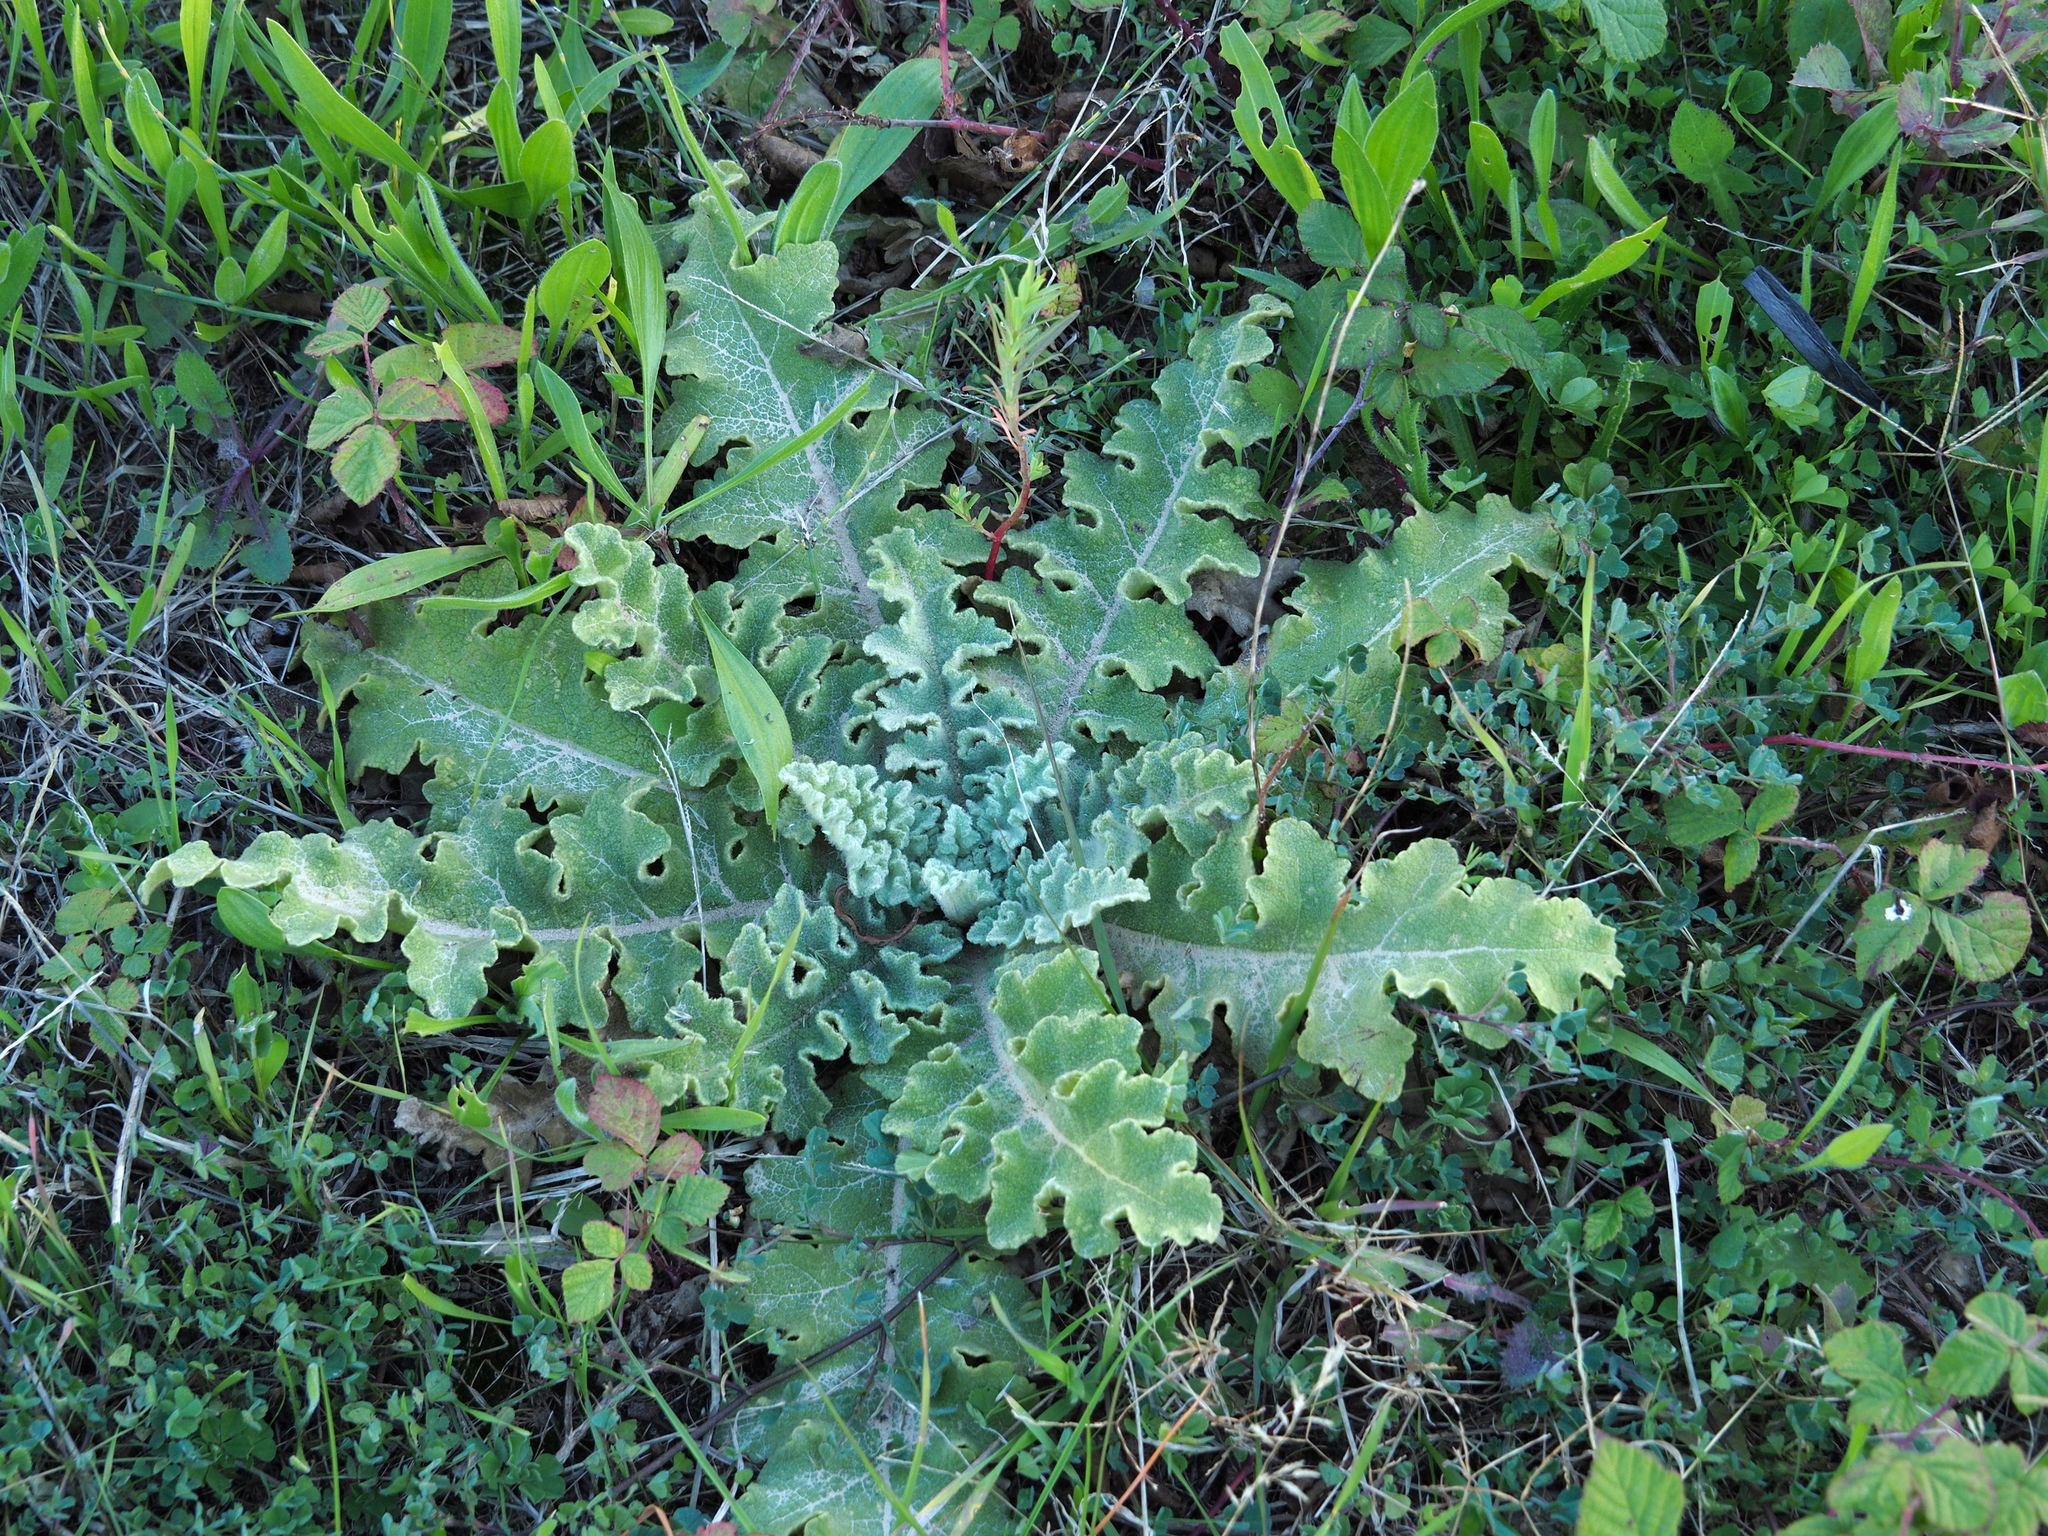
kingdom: Plantae
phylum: Tracheophyta
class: Magnoliopsida
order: Lamiales
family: Scrophulariaceae
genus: Verbascum
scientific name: Verbascum sinuatum
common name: Wavyleaf mullein
